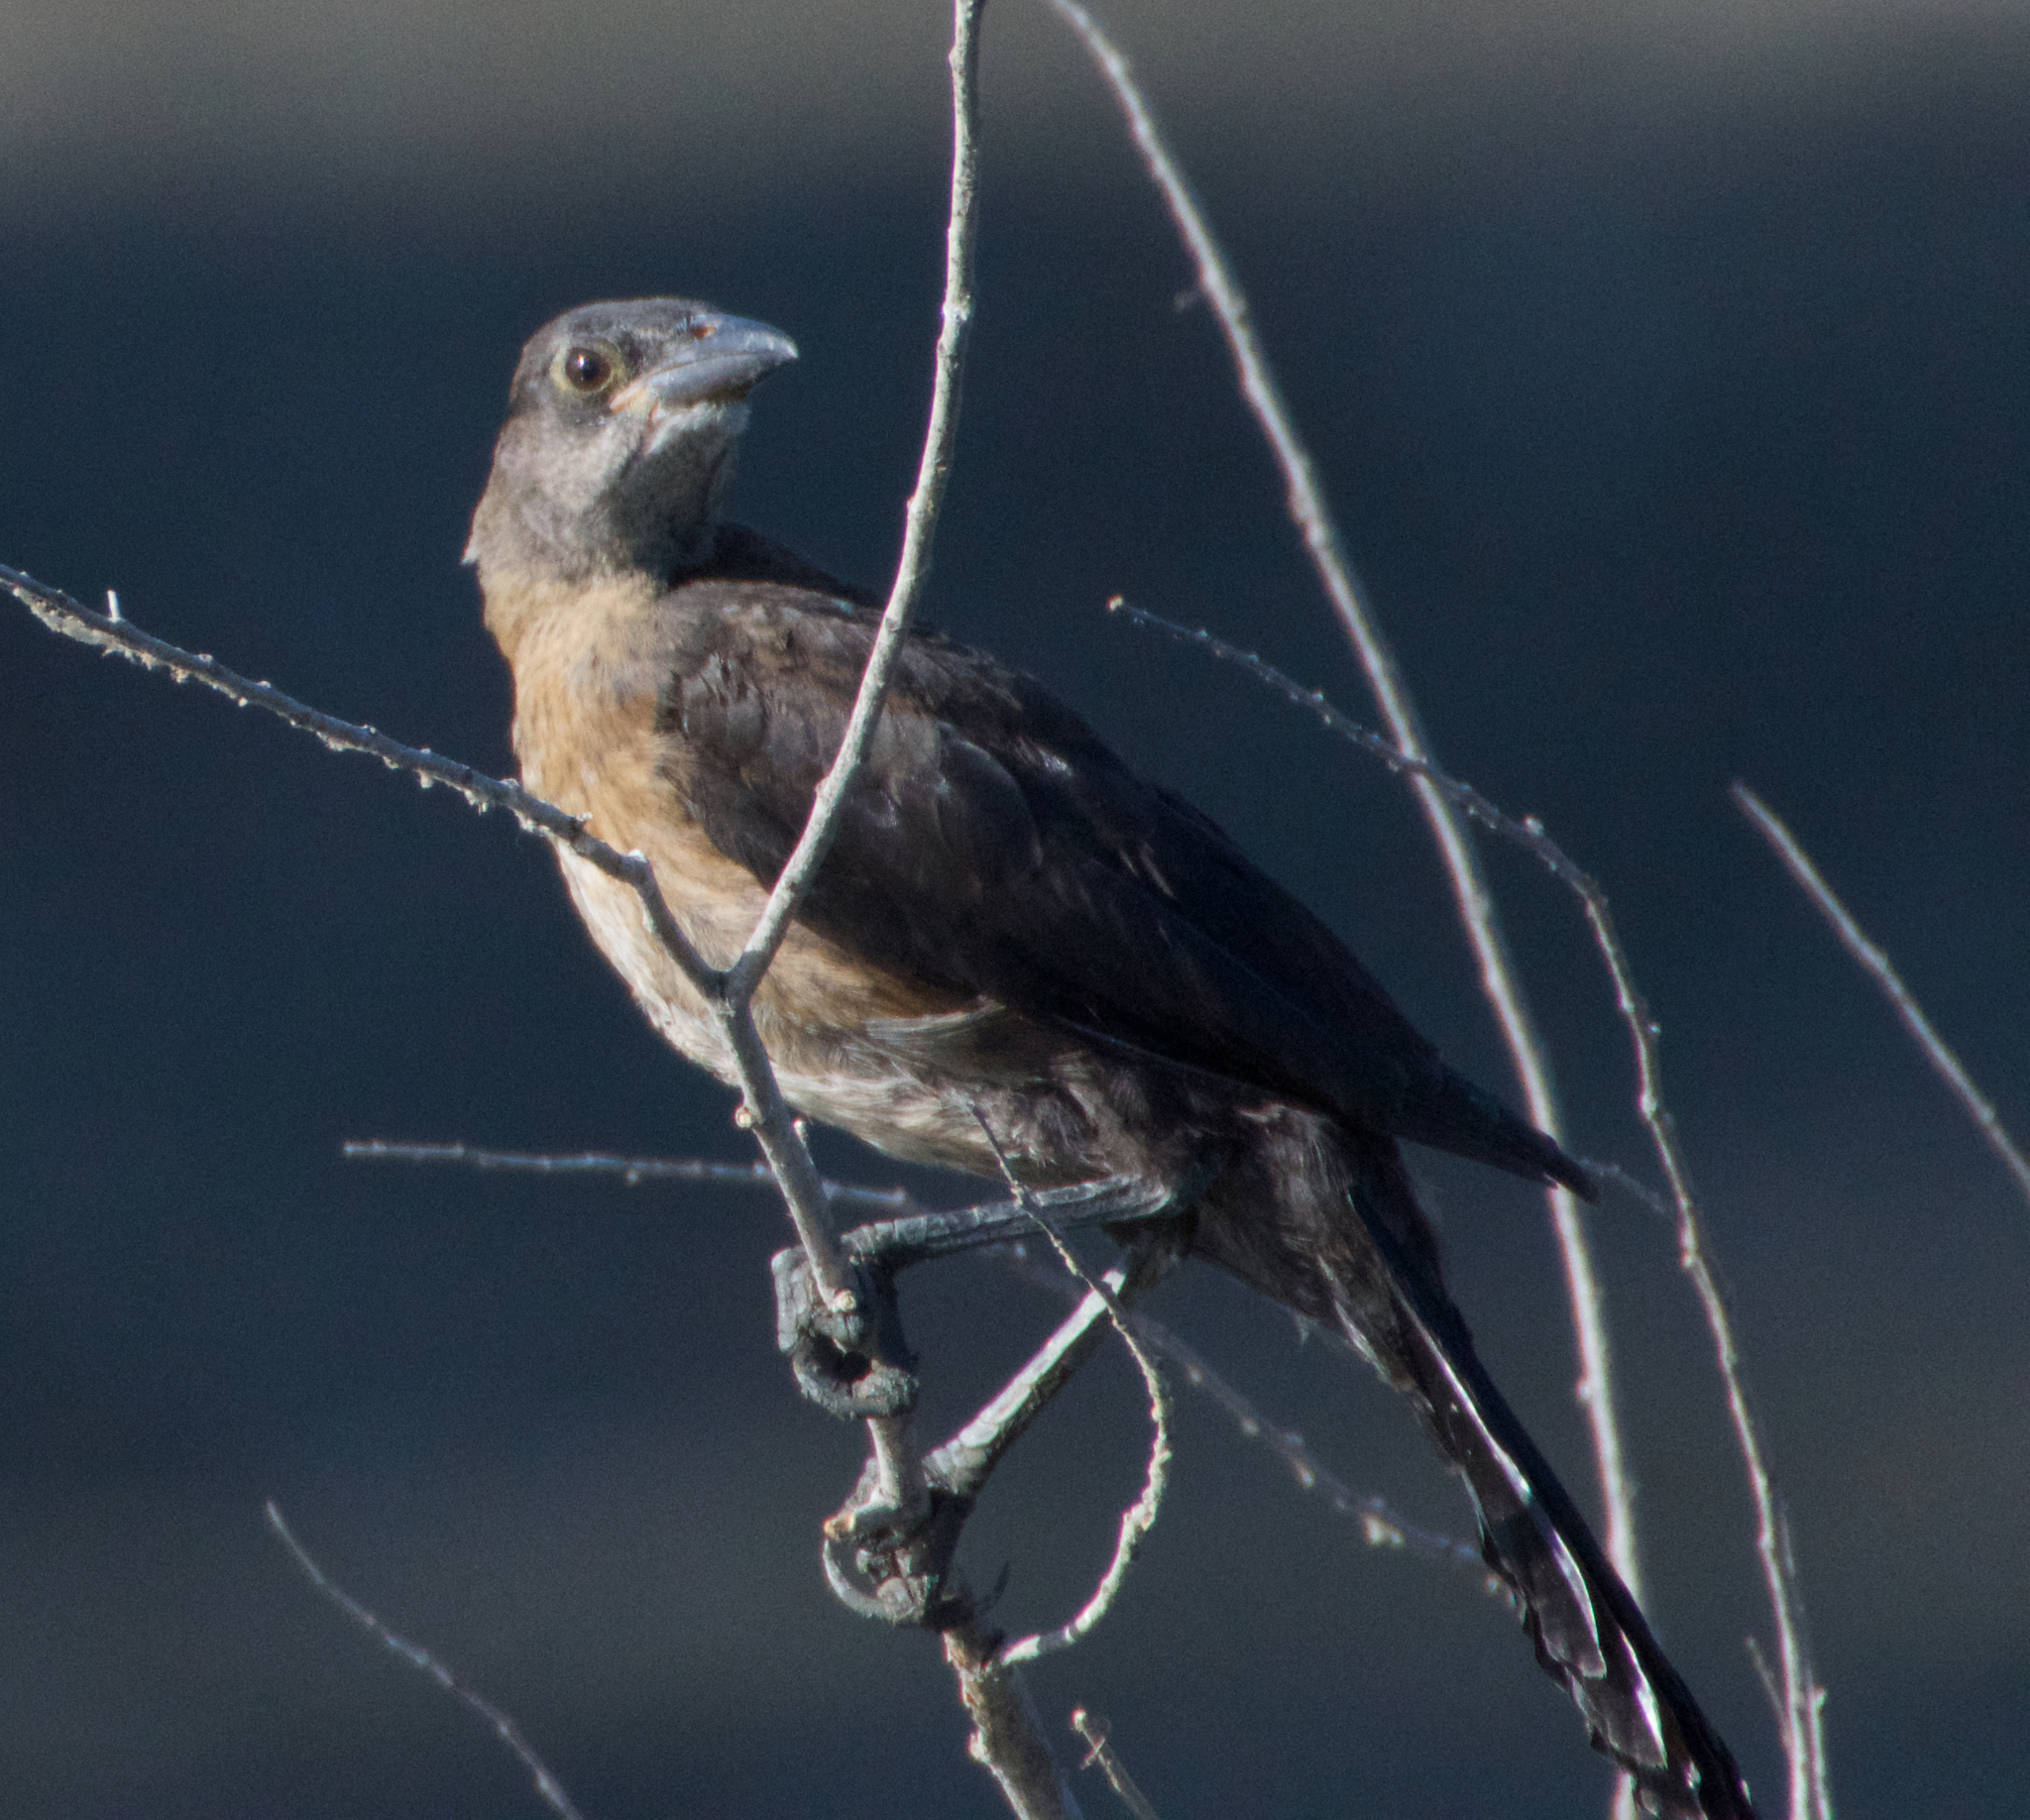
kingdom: Animalia
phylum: Chordata
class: Aves
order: Passeriformes
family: Icteridae
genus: Quiscalus
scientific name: Quiscalus mexicanus
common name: Great-tailed grackle
